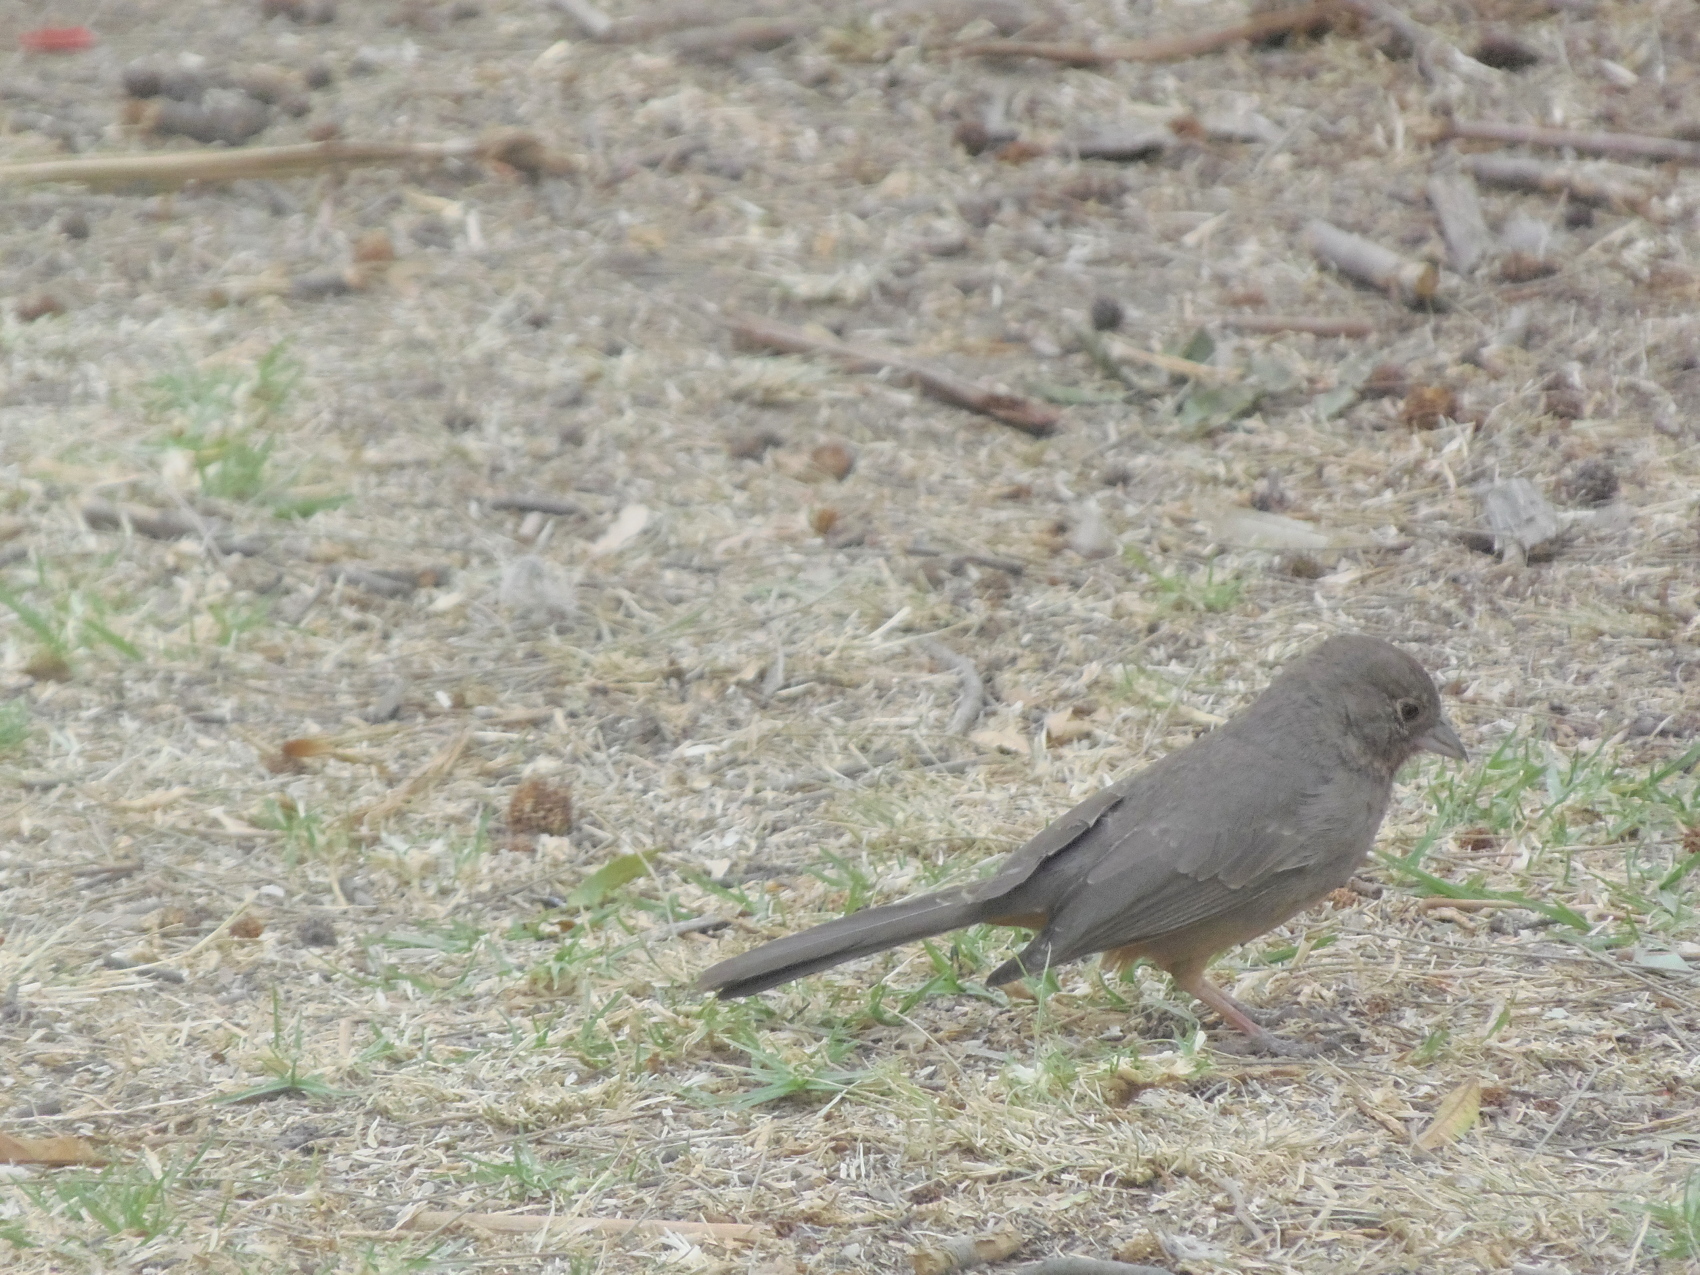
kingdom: Animalia
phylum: Chordata
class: Aves
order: Passeriformes
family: Passerellidae
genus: Melozone
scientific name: Melozone fusca
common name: Canyon towhee
